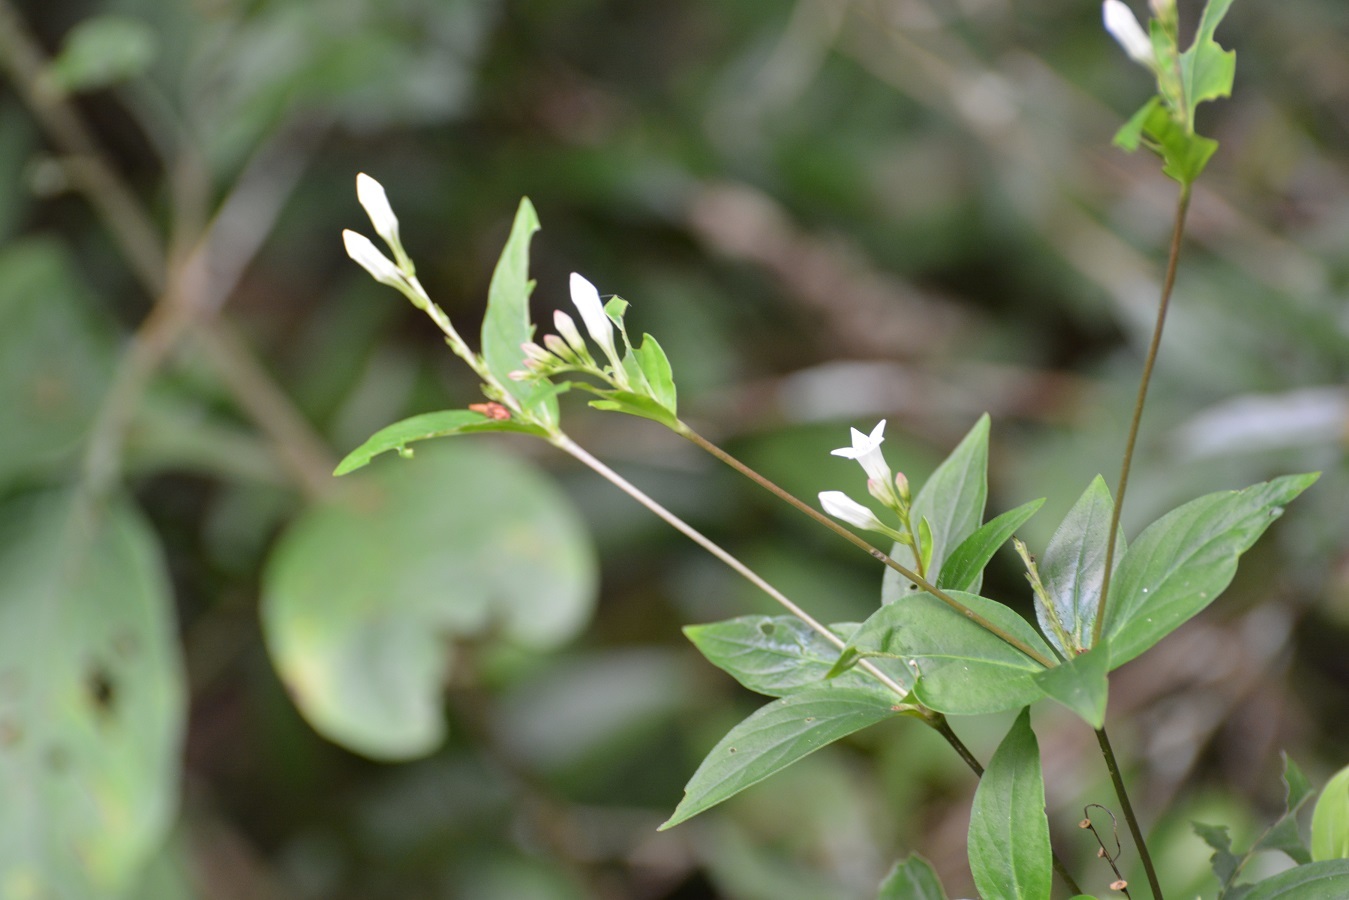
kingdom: Plantae
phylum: Tracheophyta
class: Magnoliopsida
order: Gentianales
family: Loganiaceae
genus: Spigelia
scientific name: Spigelia humboldtiana
